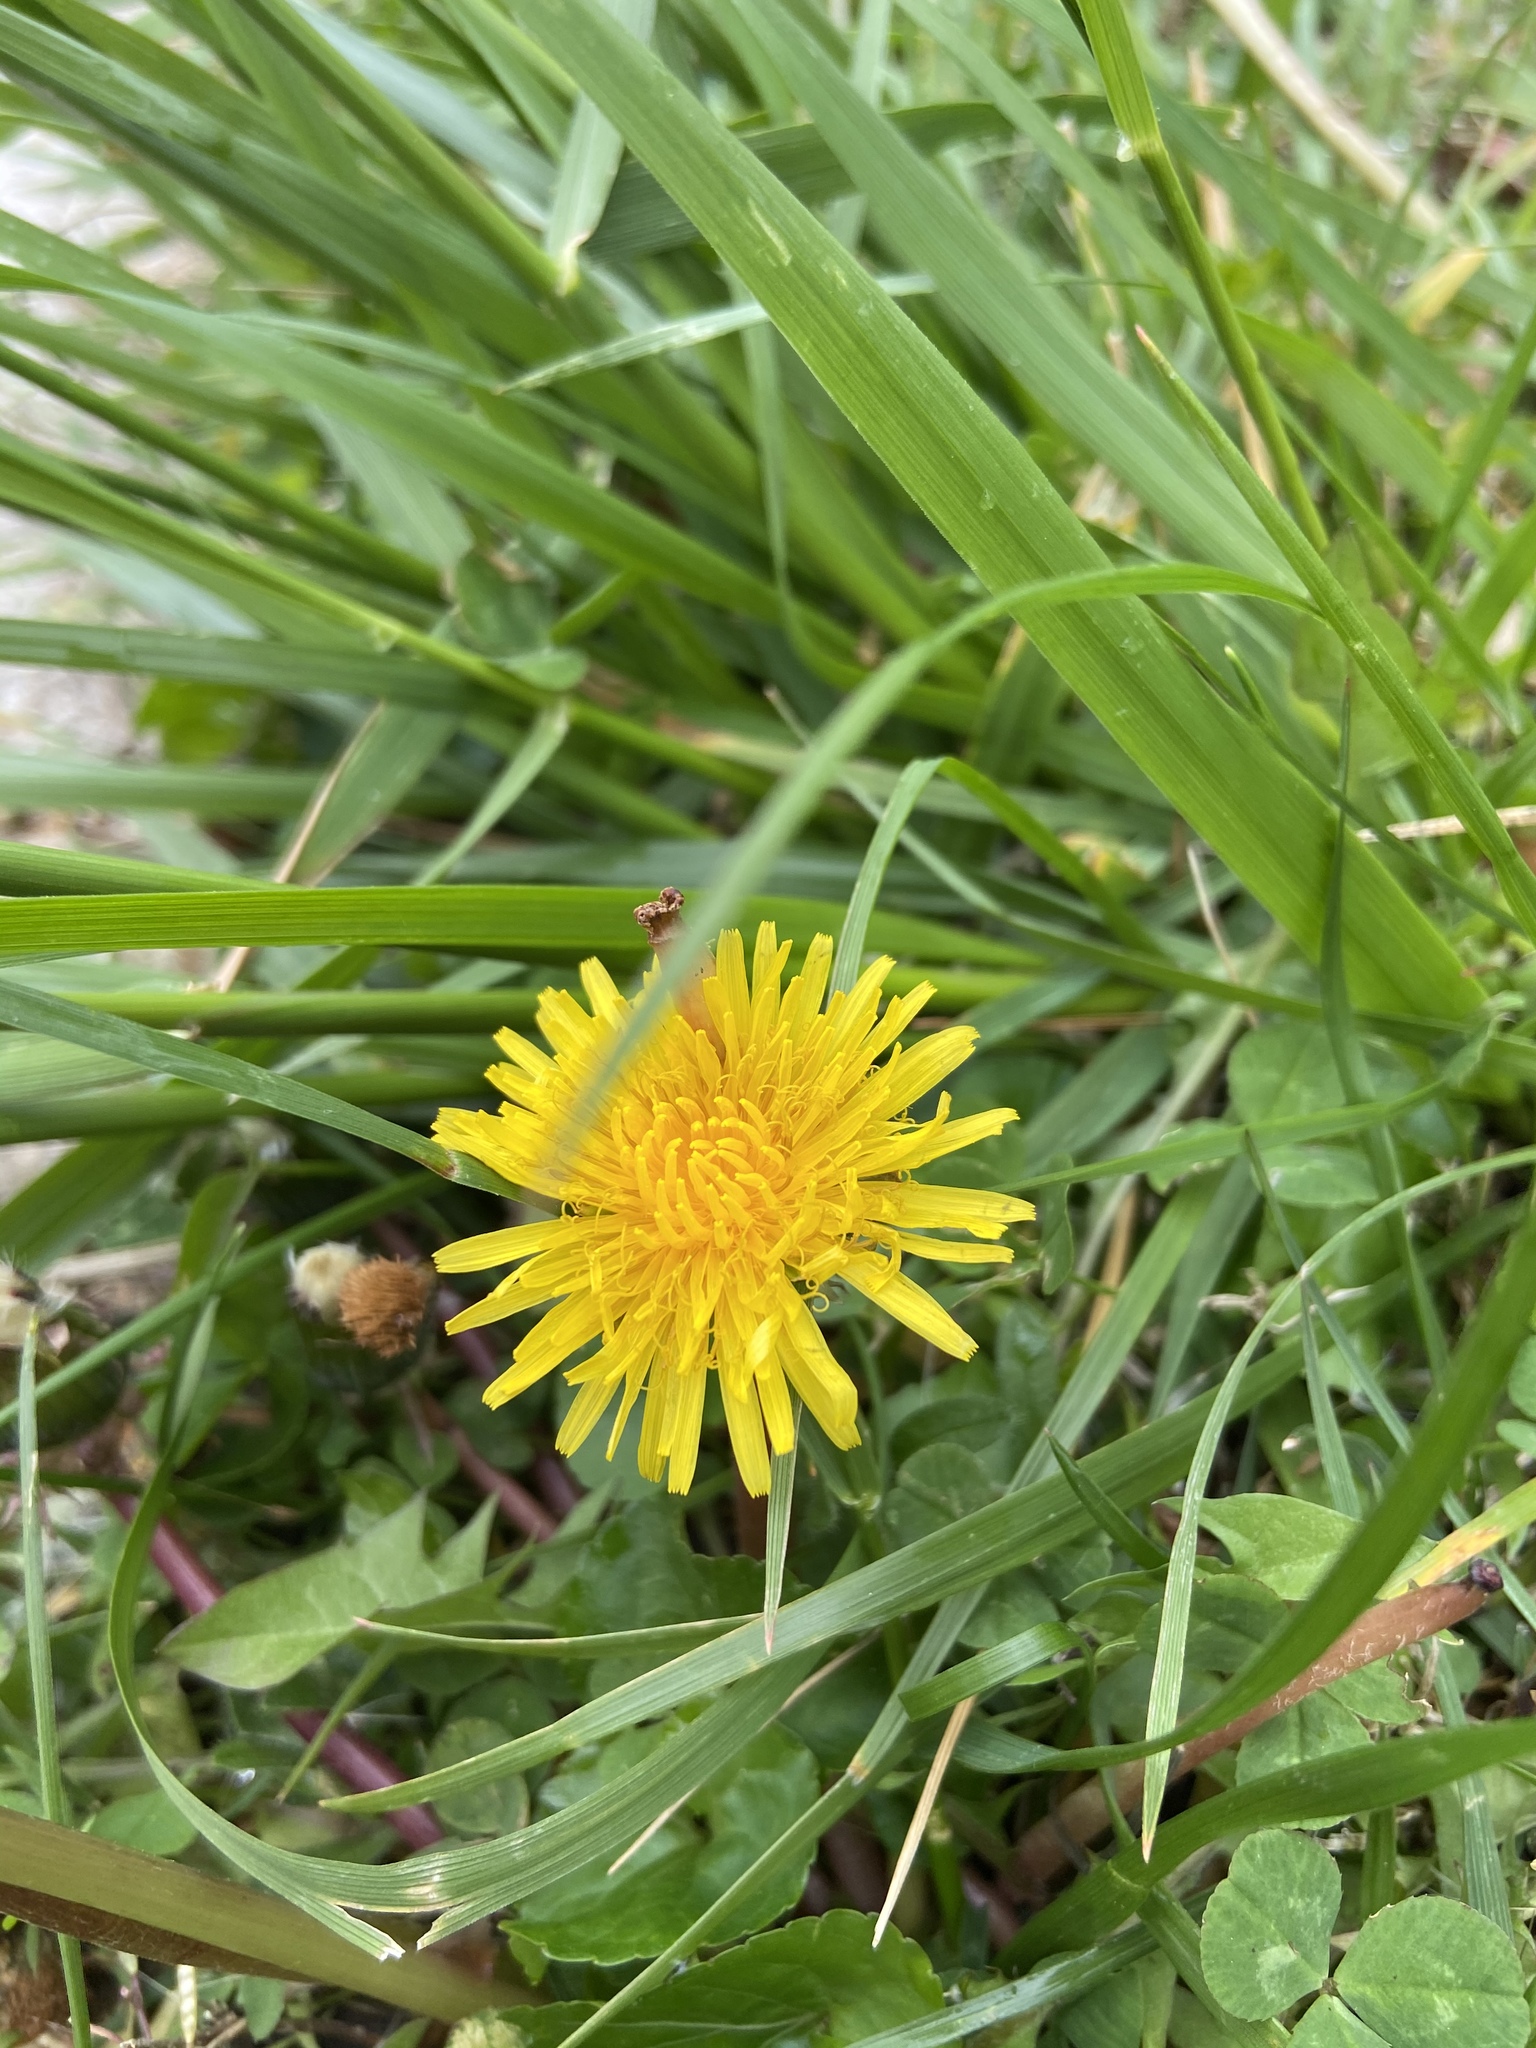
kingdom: Plantae
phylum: Tracheophyta
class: Magnoliopsida
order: Asterales
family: Asteraceae
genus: Taraxacum
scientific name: Taraxacum officinale
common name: Common dandelion
